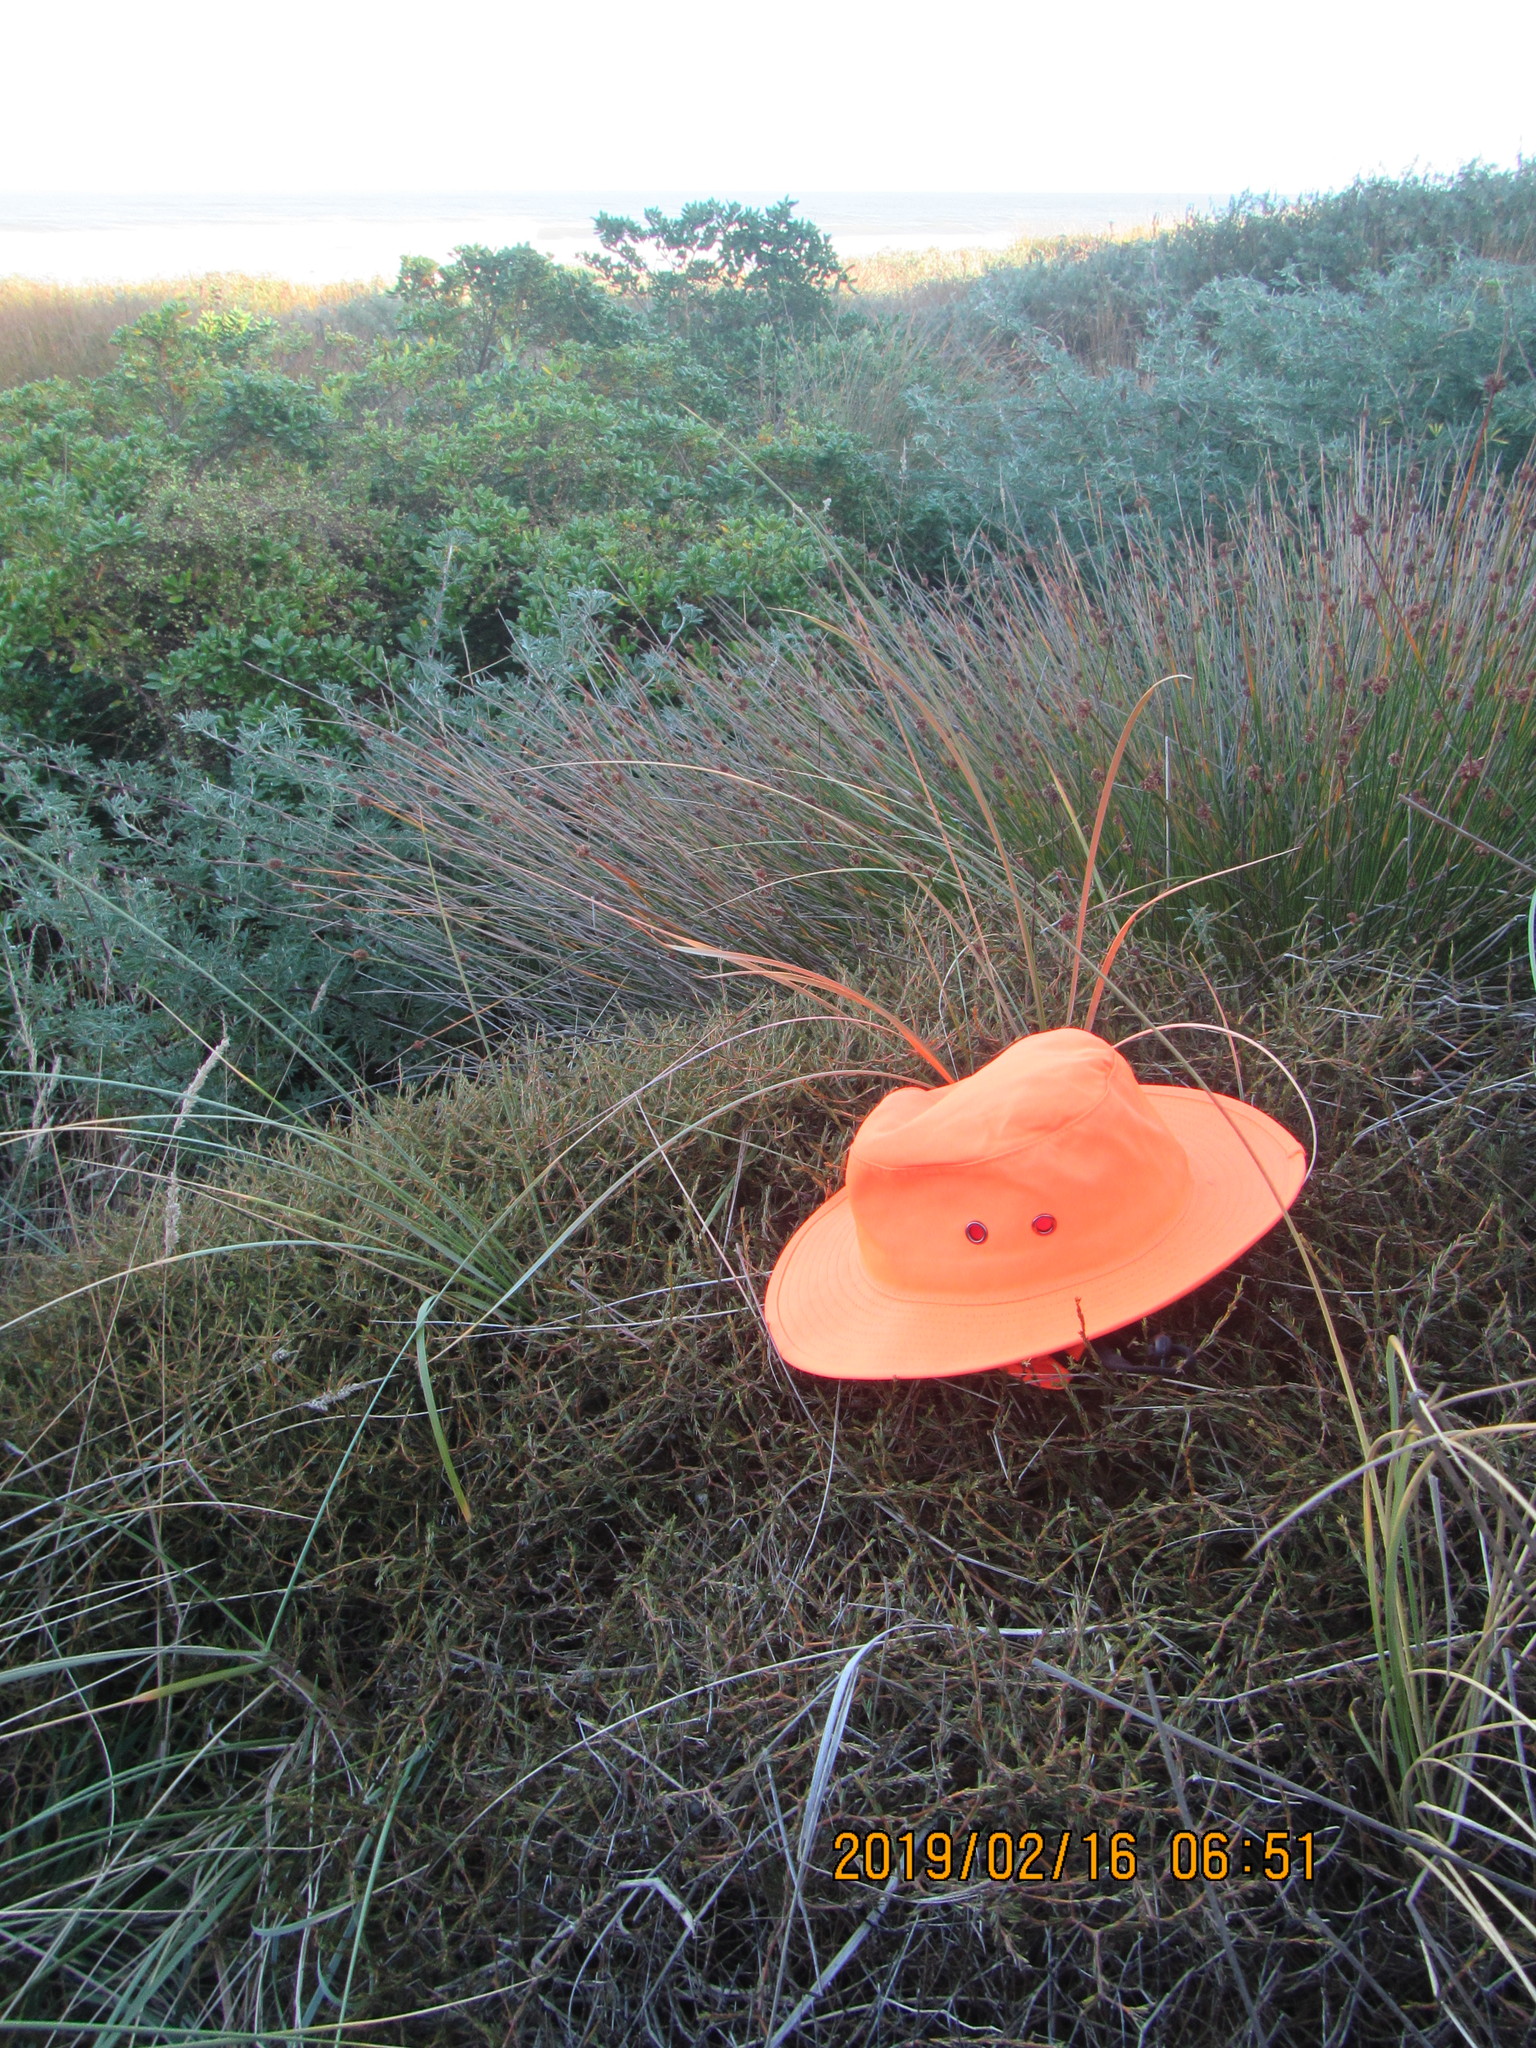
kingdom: Plantae
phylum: Tracheophyta
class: Magnoliopsida
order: Gentianales
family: Rubiaceae
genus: Coprosma
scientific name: Coprosma acerosa
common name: Sand coprosma
